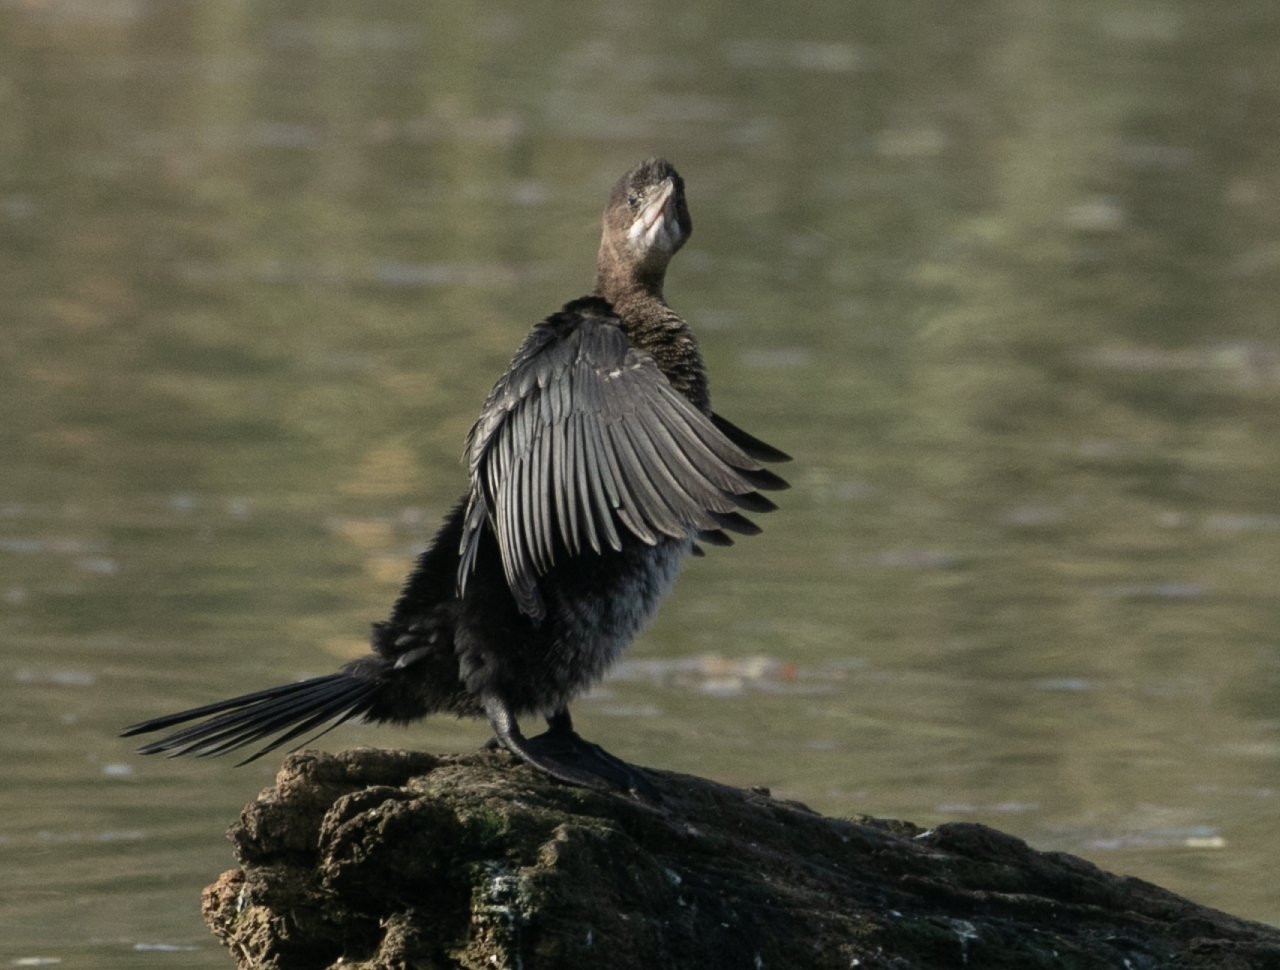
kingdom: Animalia
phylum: Chordata
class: Aves
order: Suliformes
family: Phalacrocoracidae
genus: Microcarbo
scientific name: Microcarbo pygmaeus
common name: Pygmy cormorant
